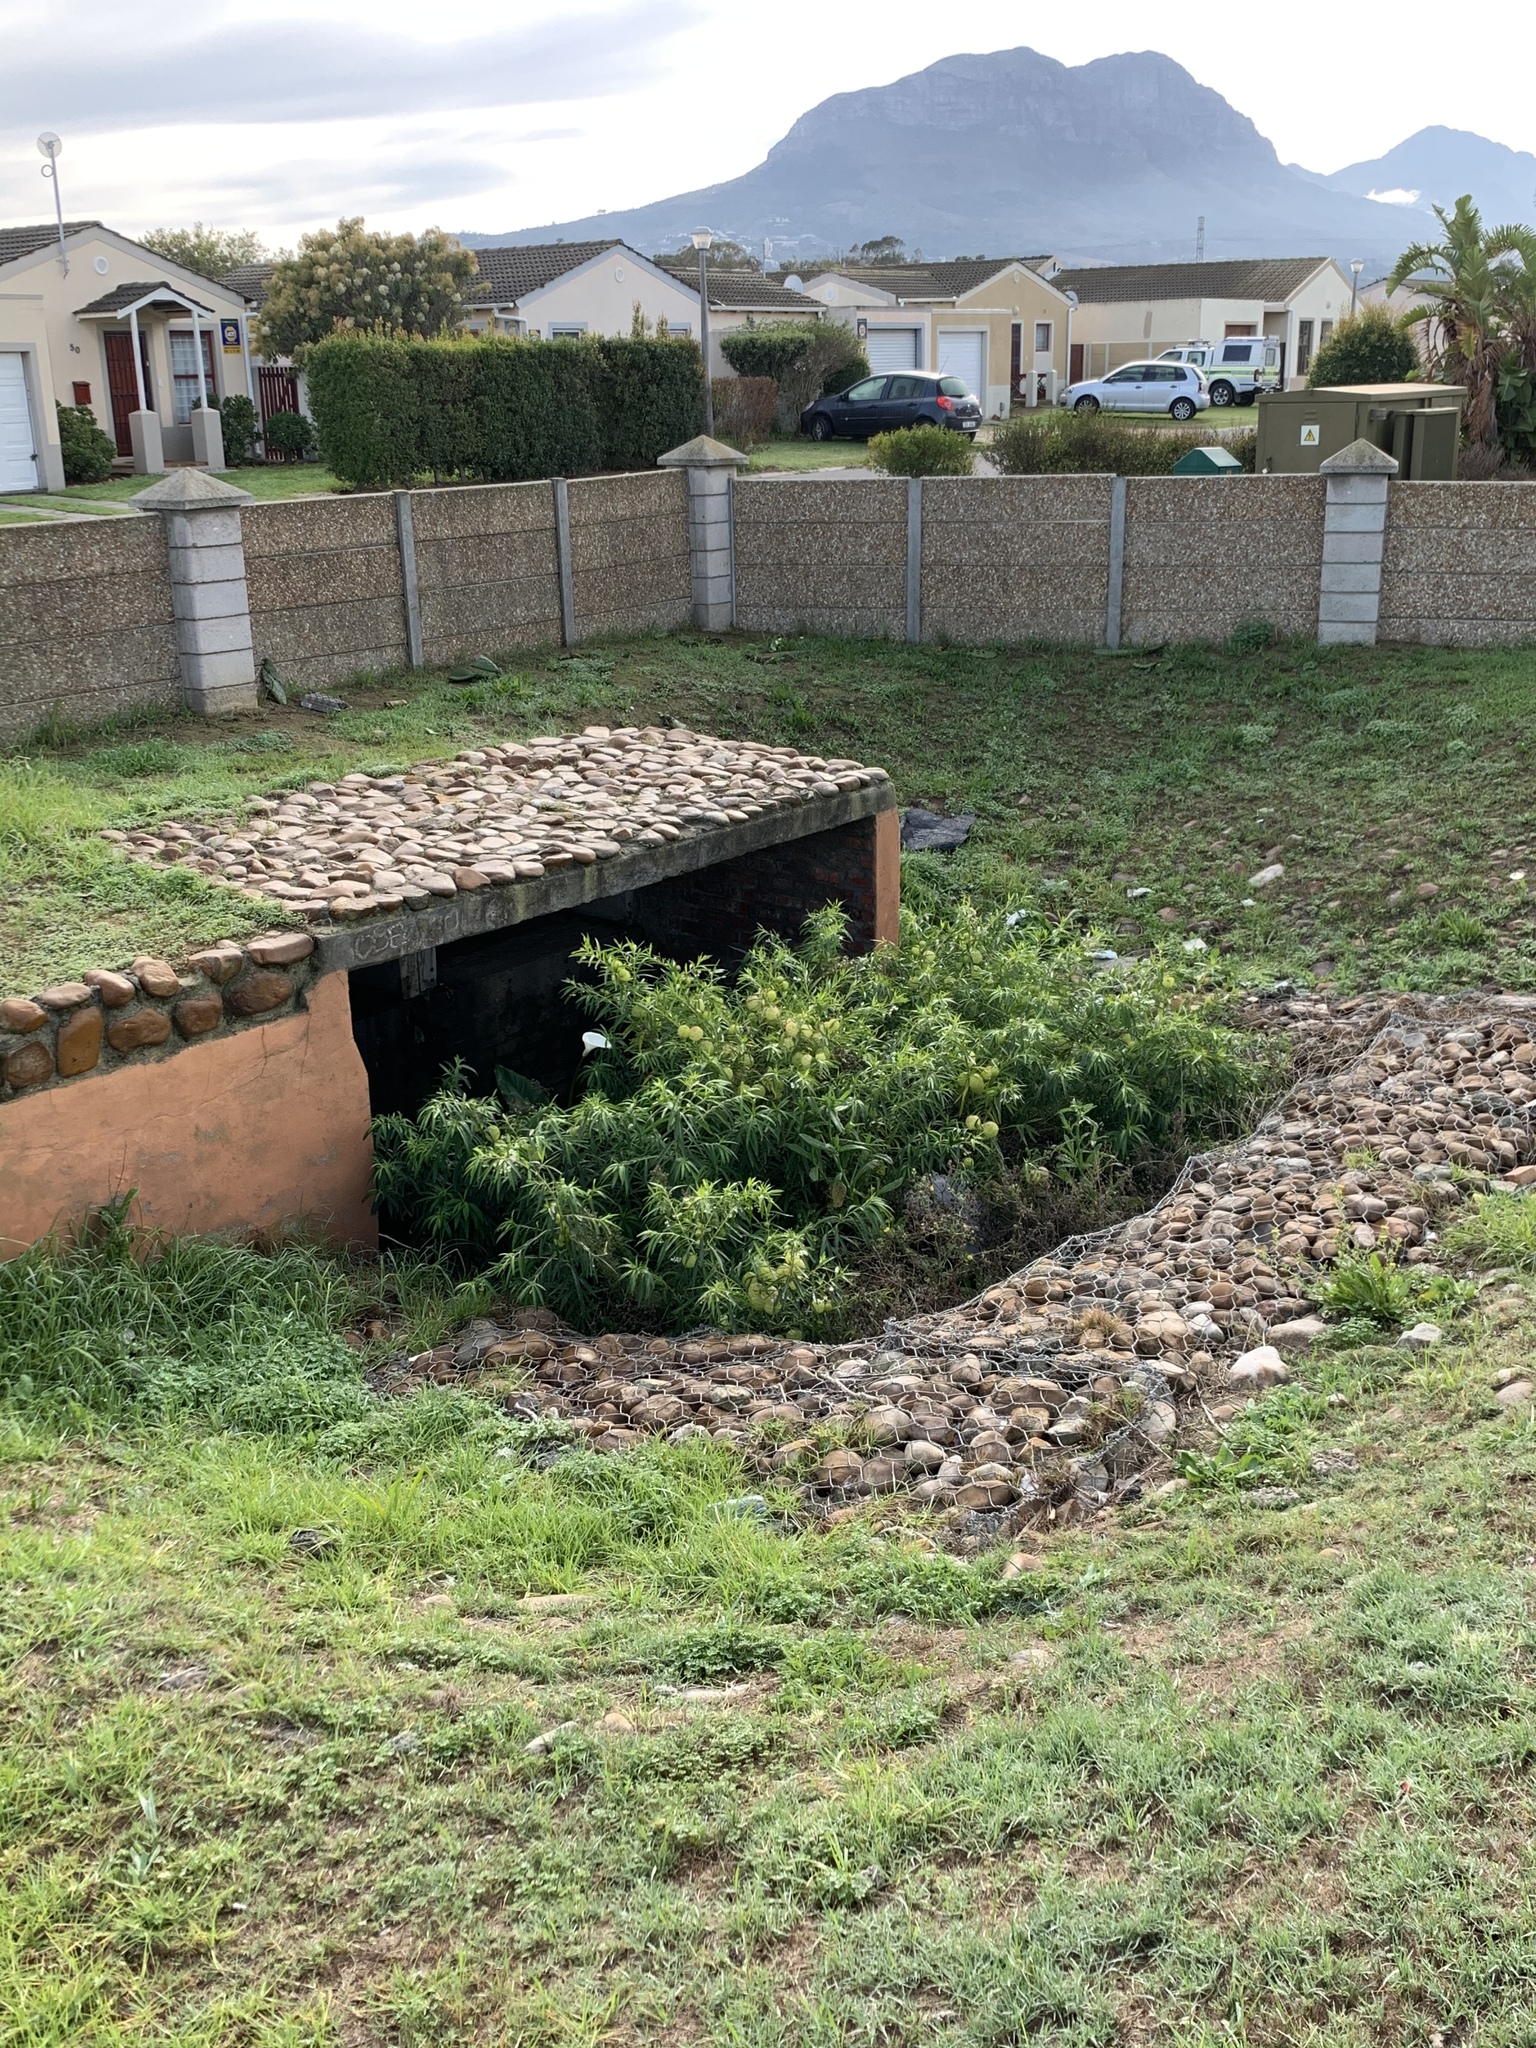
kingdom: Plantae
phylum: Tracheophyta
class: Magnoliopsida
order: Gentianales
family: Apocynaceae
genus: Gomphocarpus
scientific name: Gomphocarpus physocarpus
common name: Balloon cotton bush
